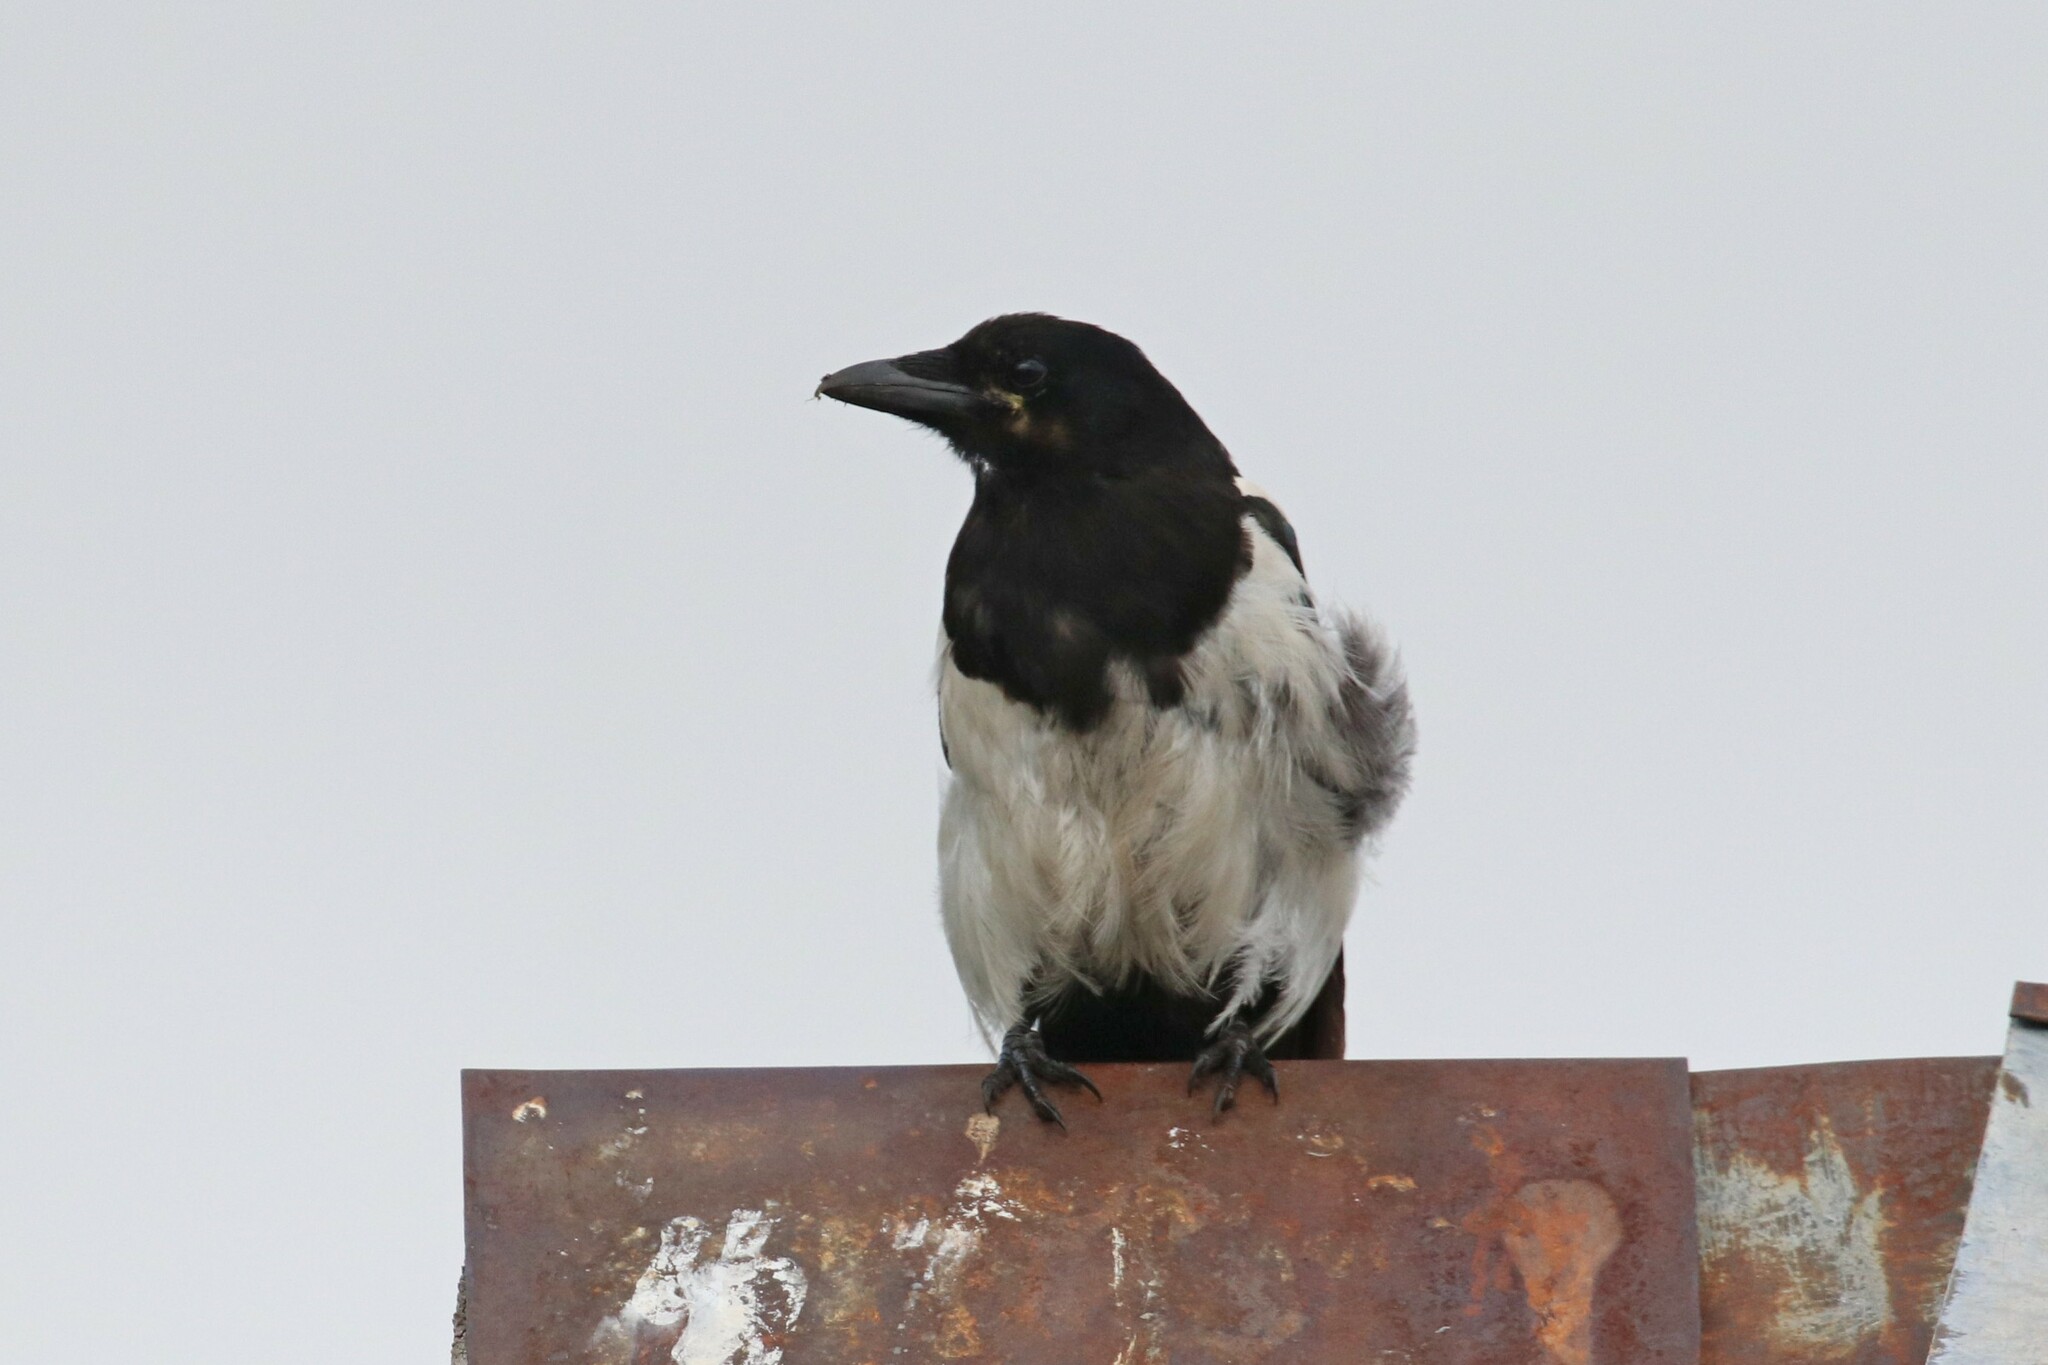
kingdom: Animalia
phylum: Chordata
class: Aves
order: Passeriformes
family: Corvidae
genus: Pica
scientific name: Pica pica
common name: Eurasian magpie
